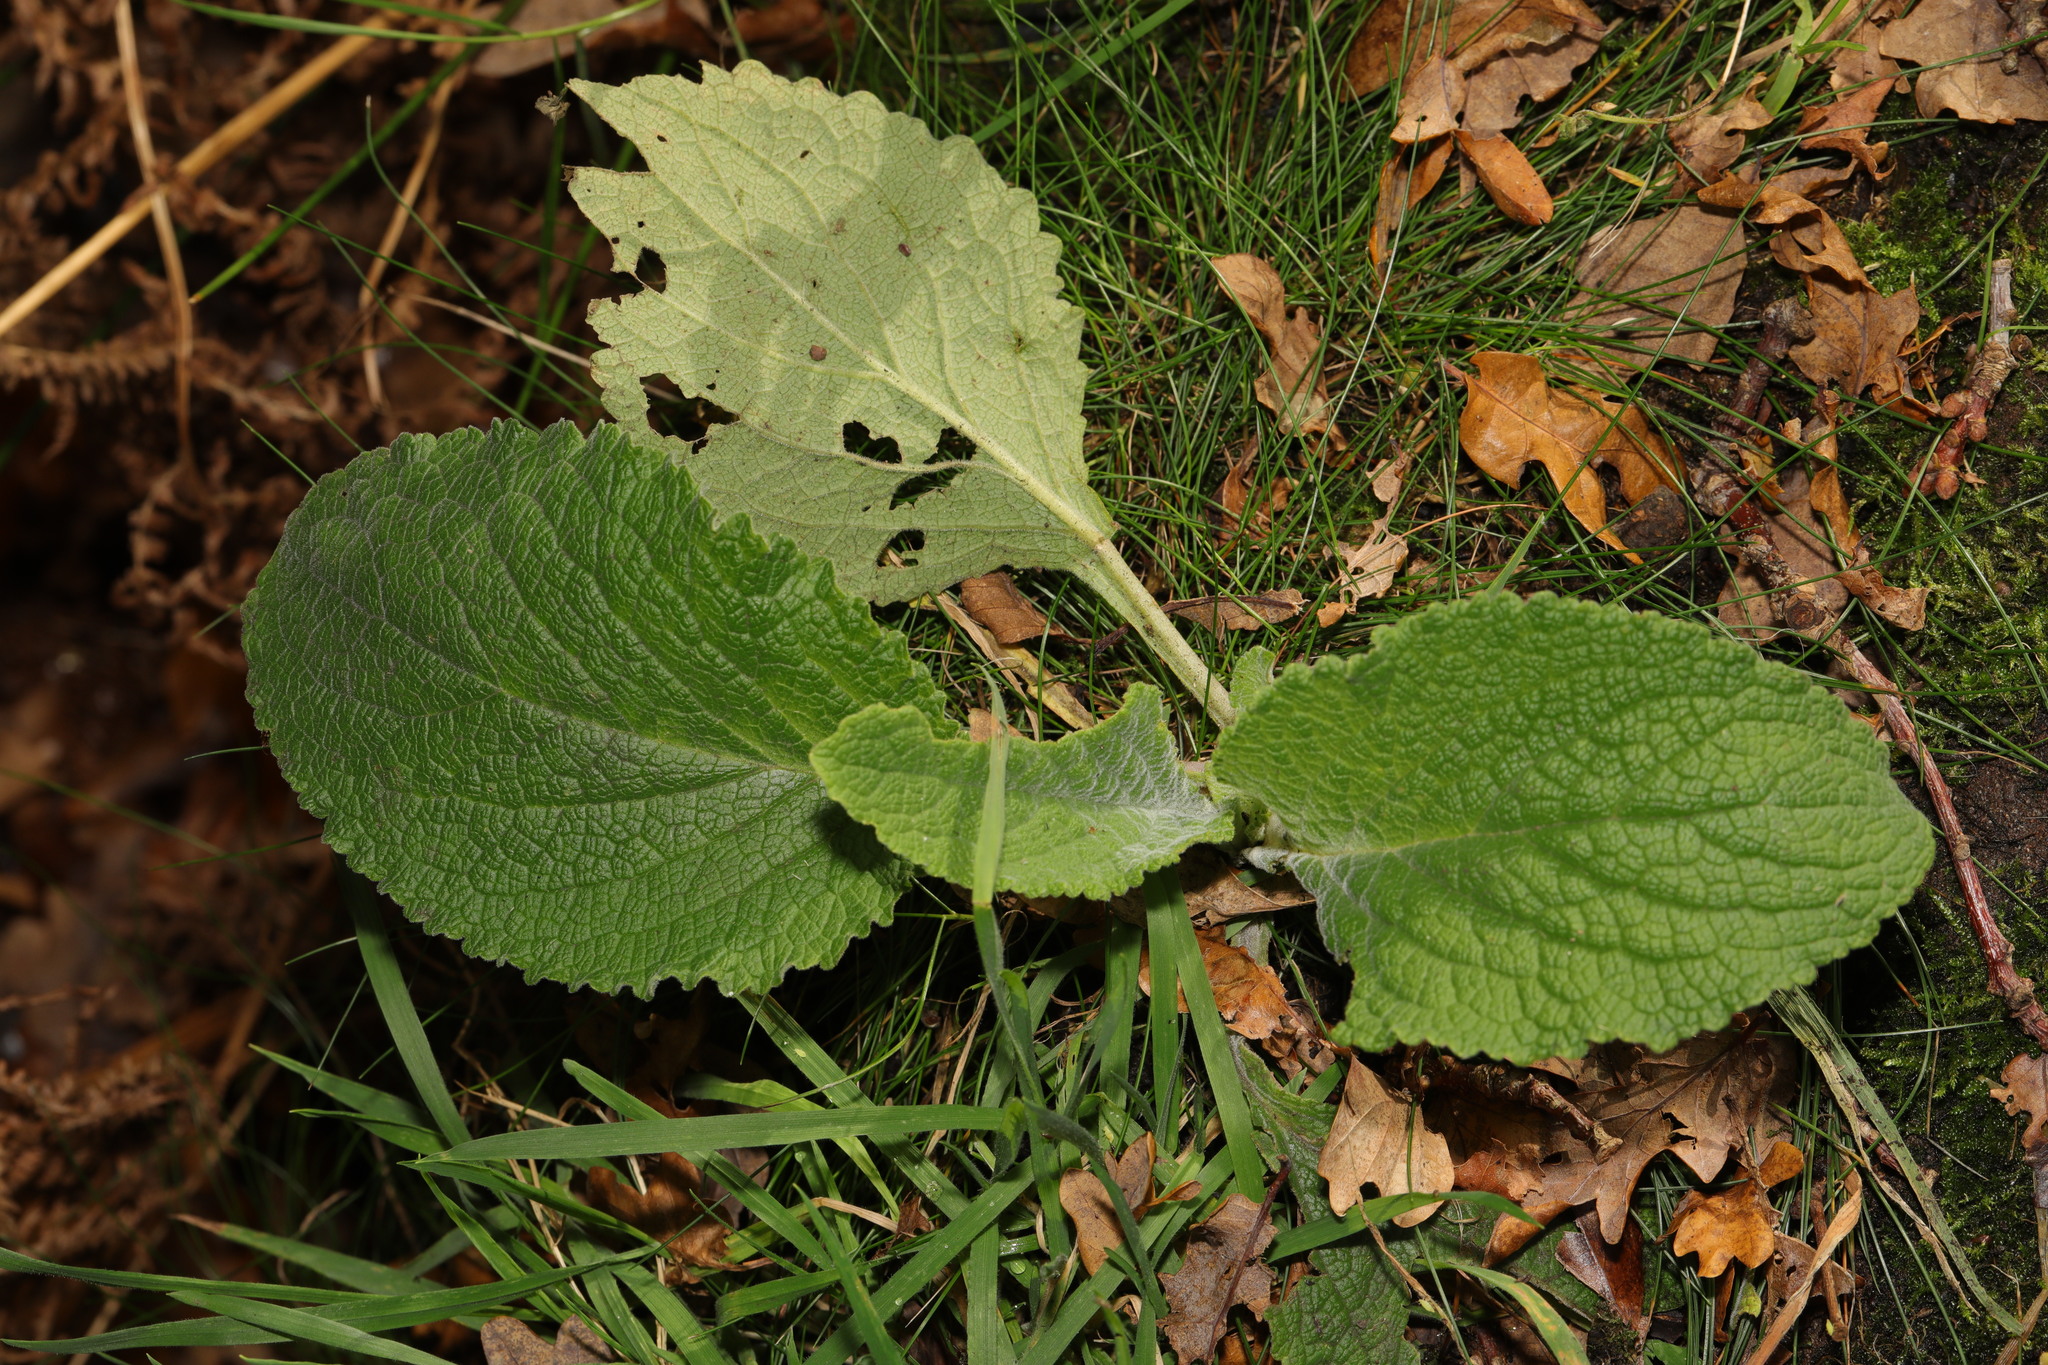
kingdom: Plantae
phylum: Tracheophyta
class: Magnoliopsida
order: Lamiales
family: Plantaginaceae
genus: Digitalis
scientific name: Digitalis purpurea
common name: Foxglove
